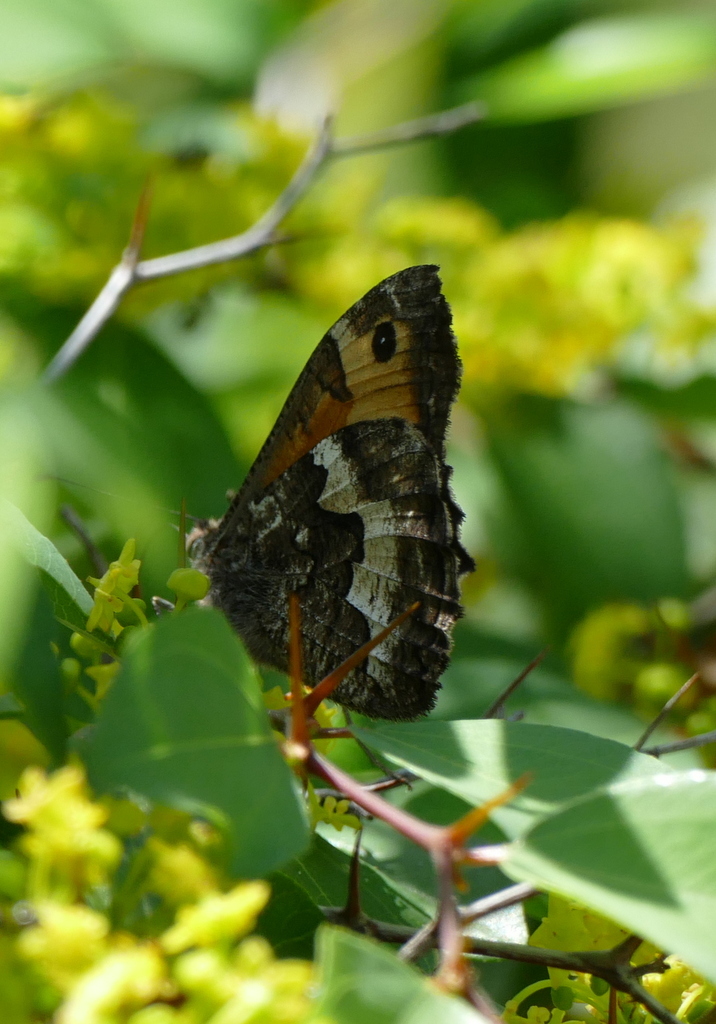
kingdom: Animalia
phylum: Arthropoda
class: Insecta
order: Lepidoptera
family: Nymphalidae
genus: Hipparchia
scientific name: Hipparchia semele
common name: Grayling
